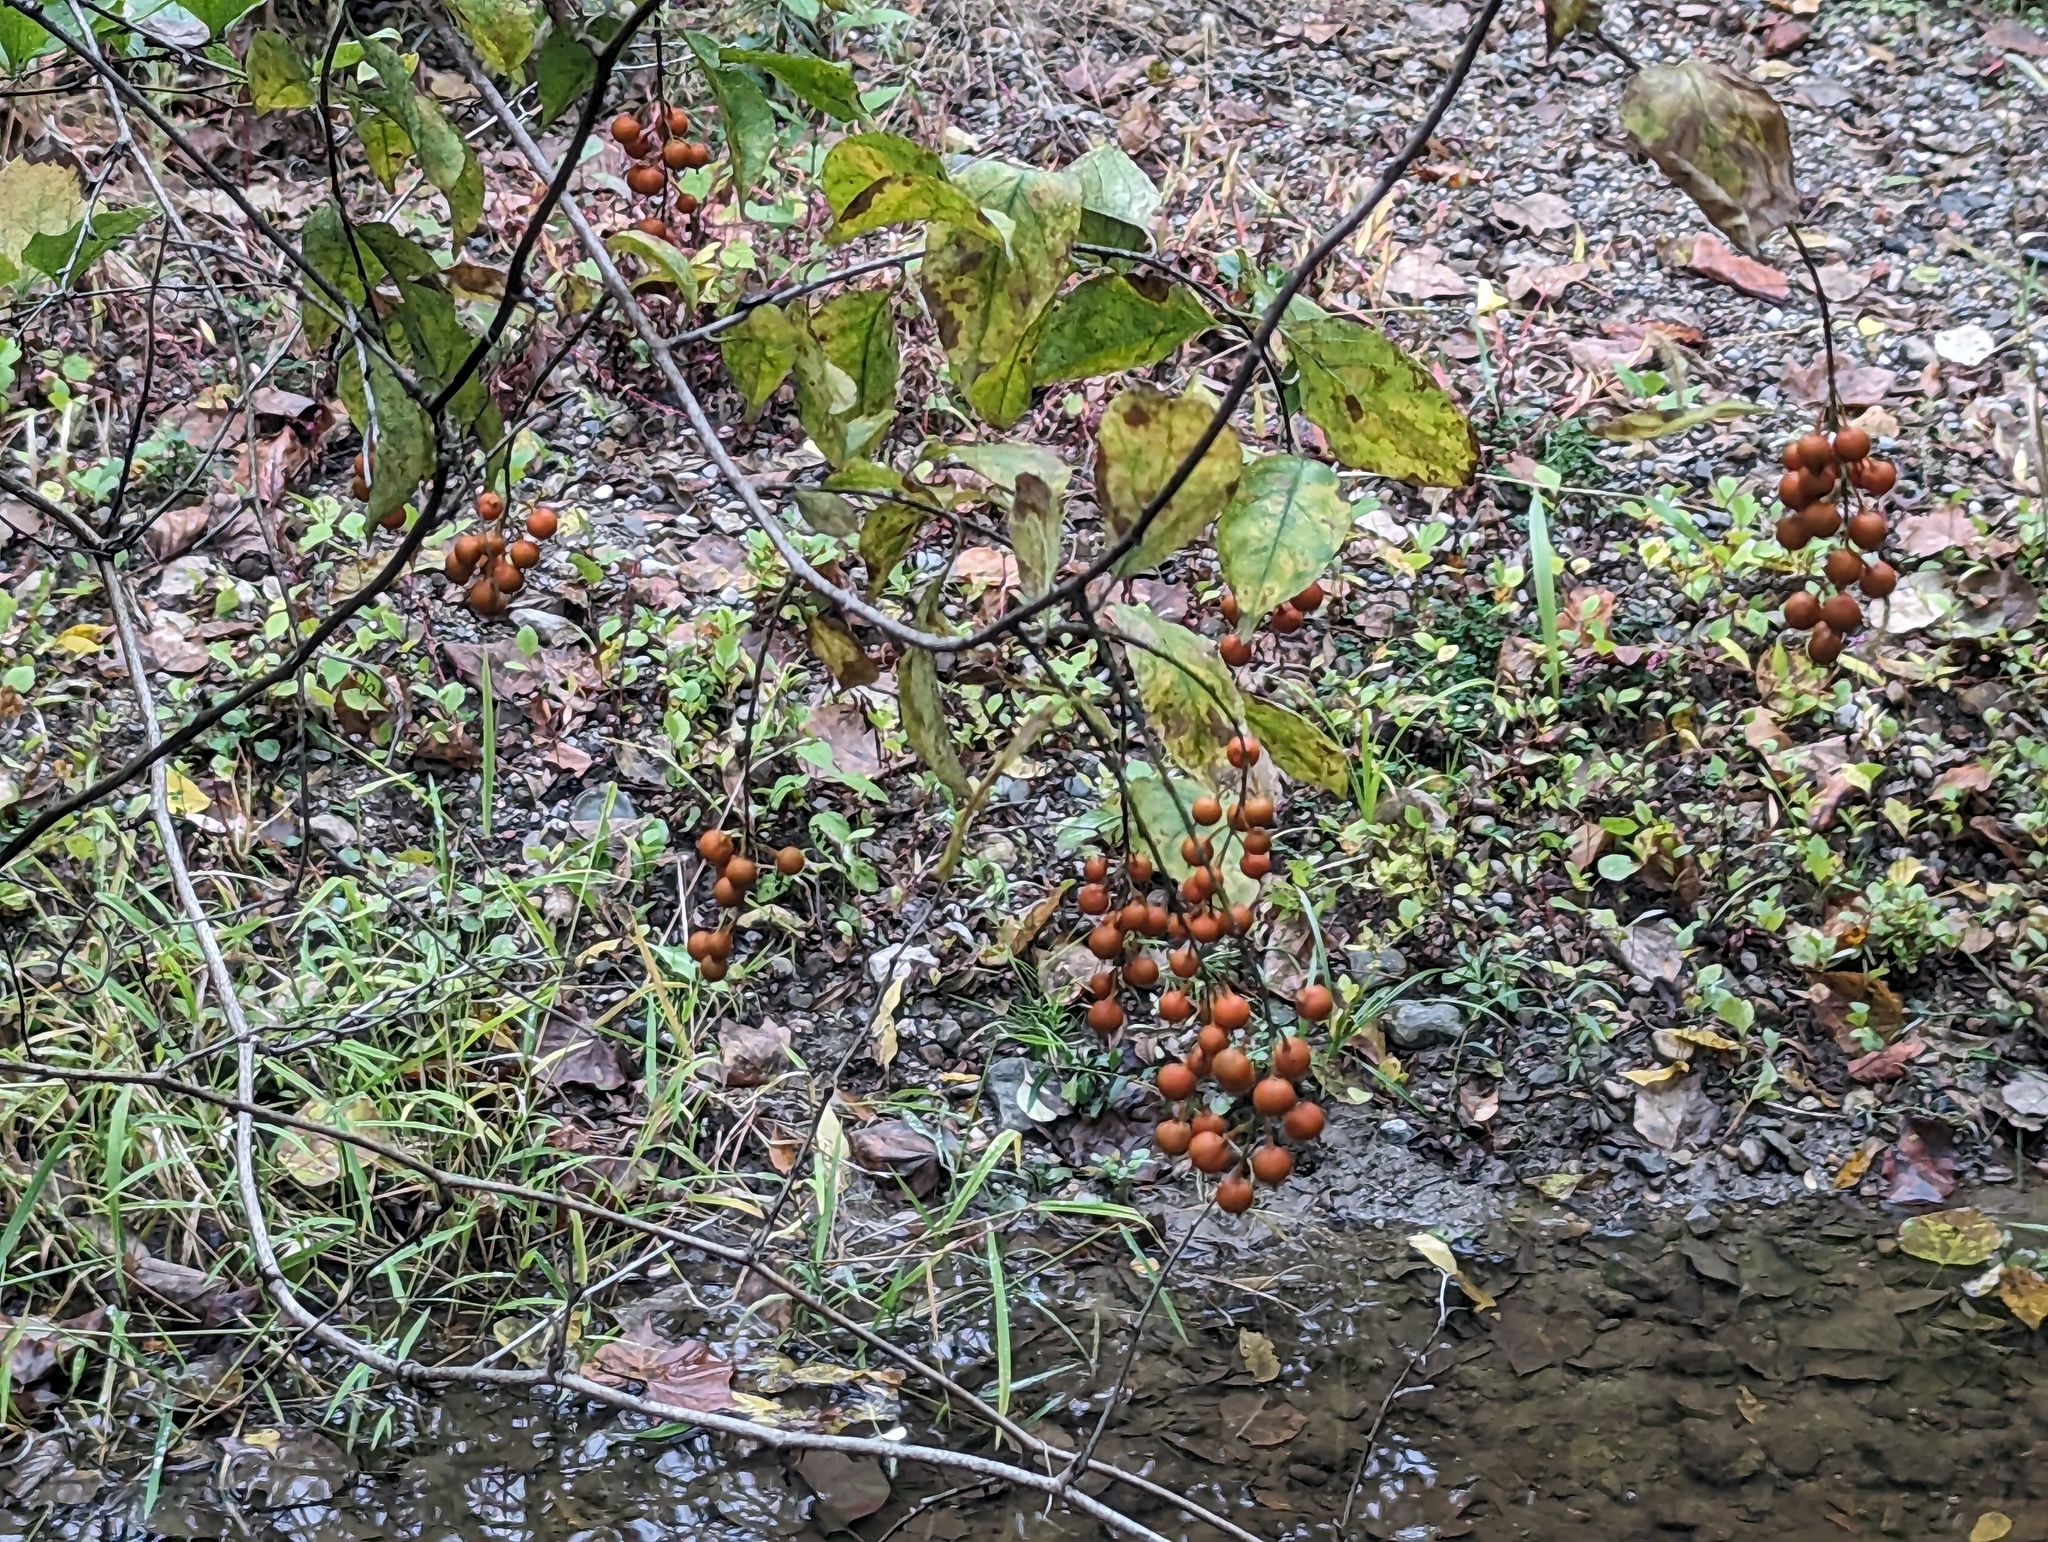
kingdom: Plantae
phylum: Tracheophyta
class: Magnoliopsida
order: Celastrales
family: Celastraceae
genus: Celastrus
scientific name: Celastrus scandens
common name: American bittersweet
